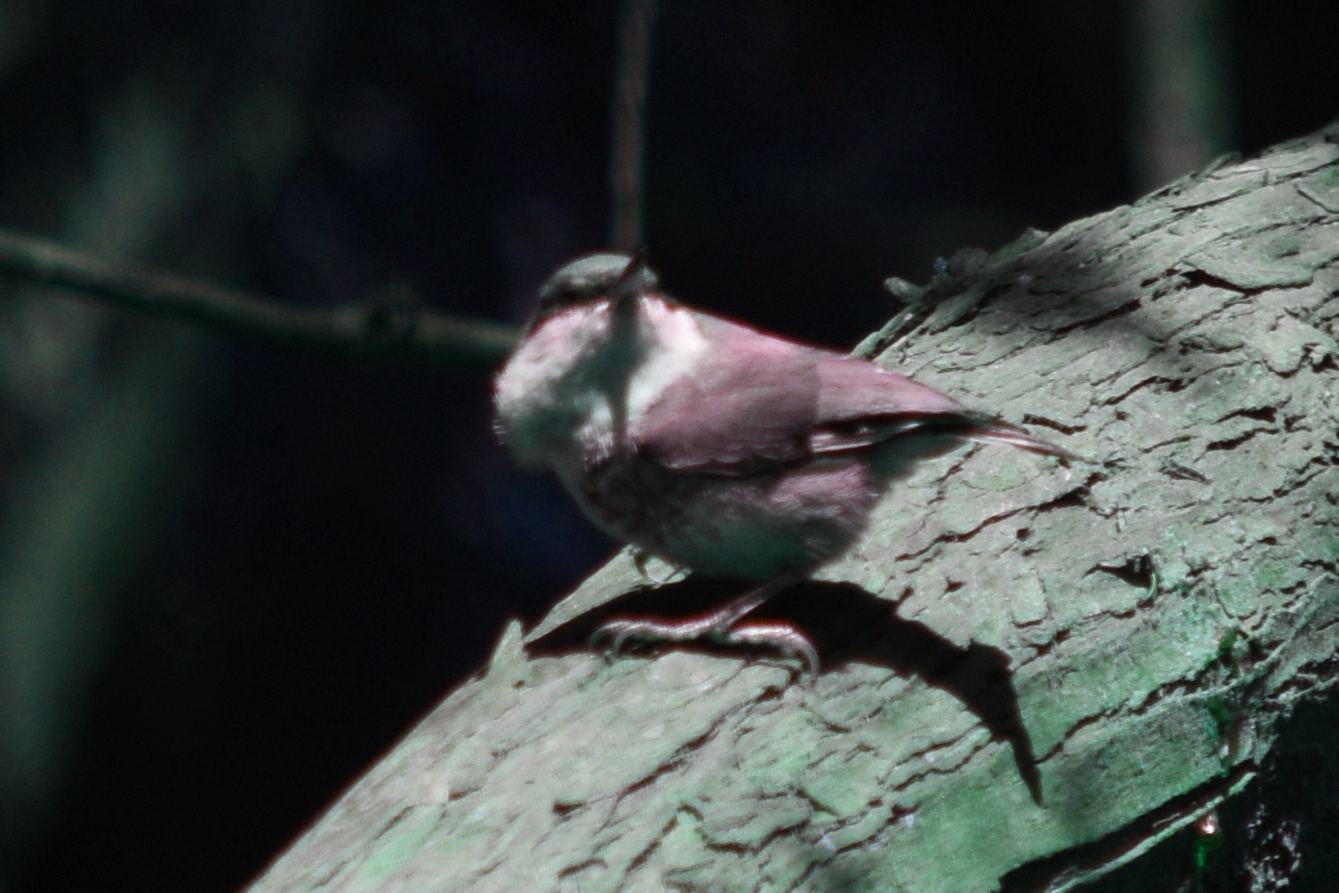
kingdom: Animalia
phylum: Chordata
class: Aves
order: Passeriformes
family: Sittidae
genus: Sitta
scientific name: Sitta pygmaea
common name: Pygmy nuthatch
